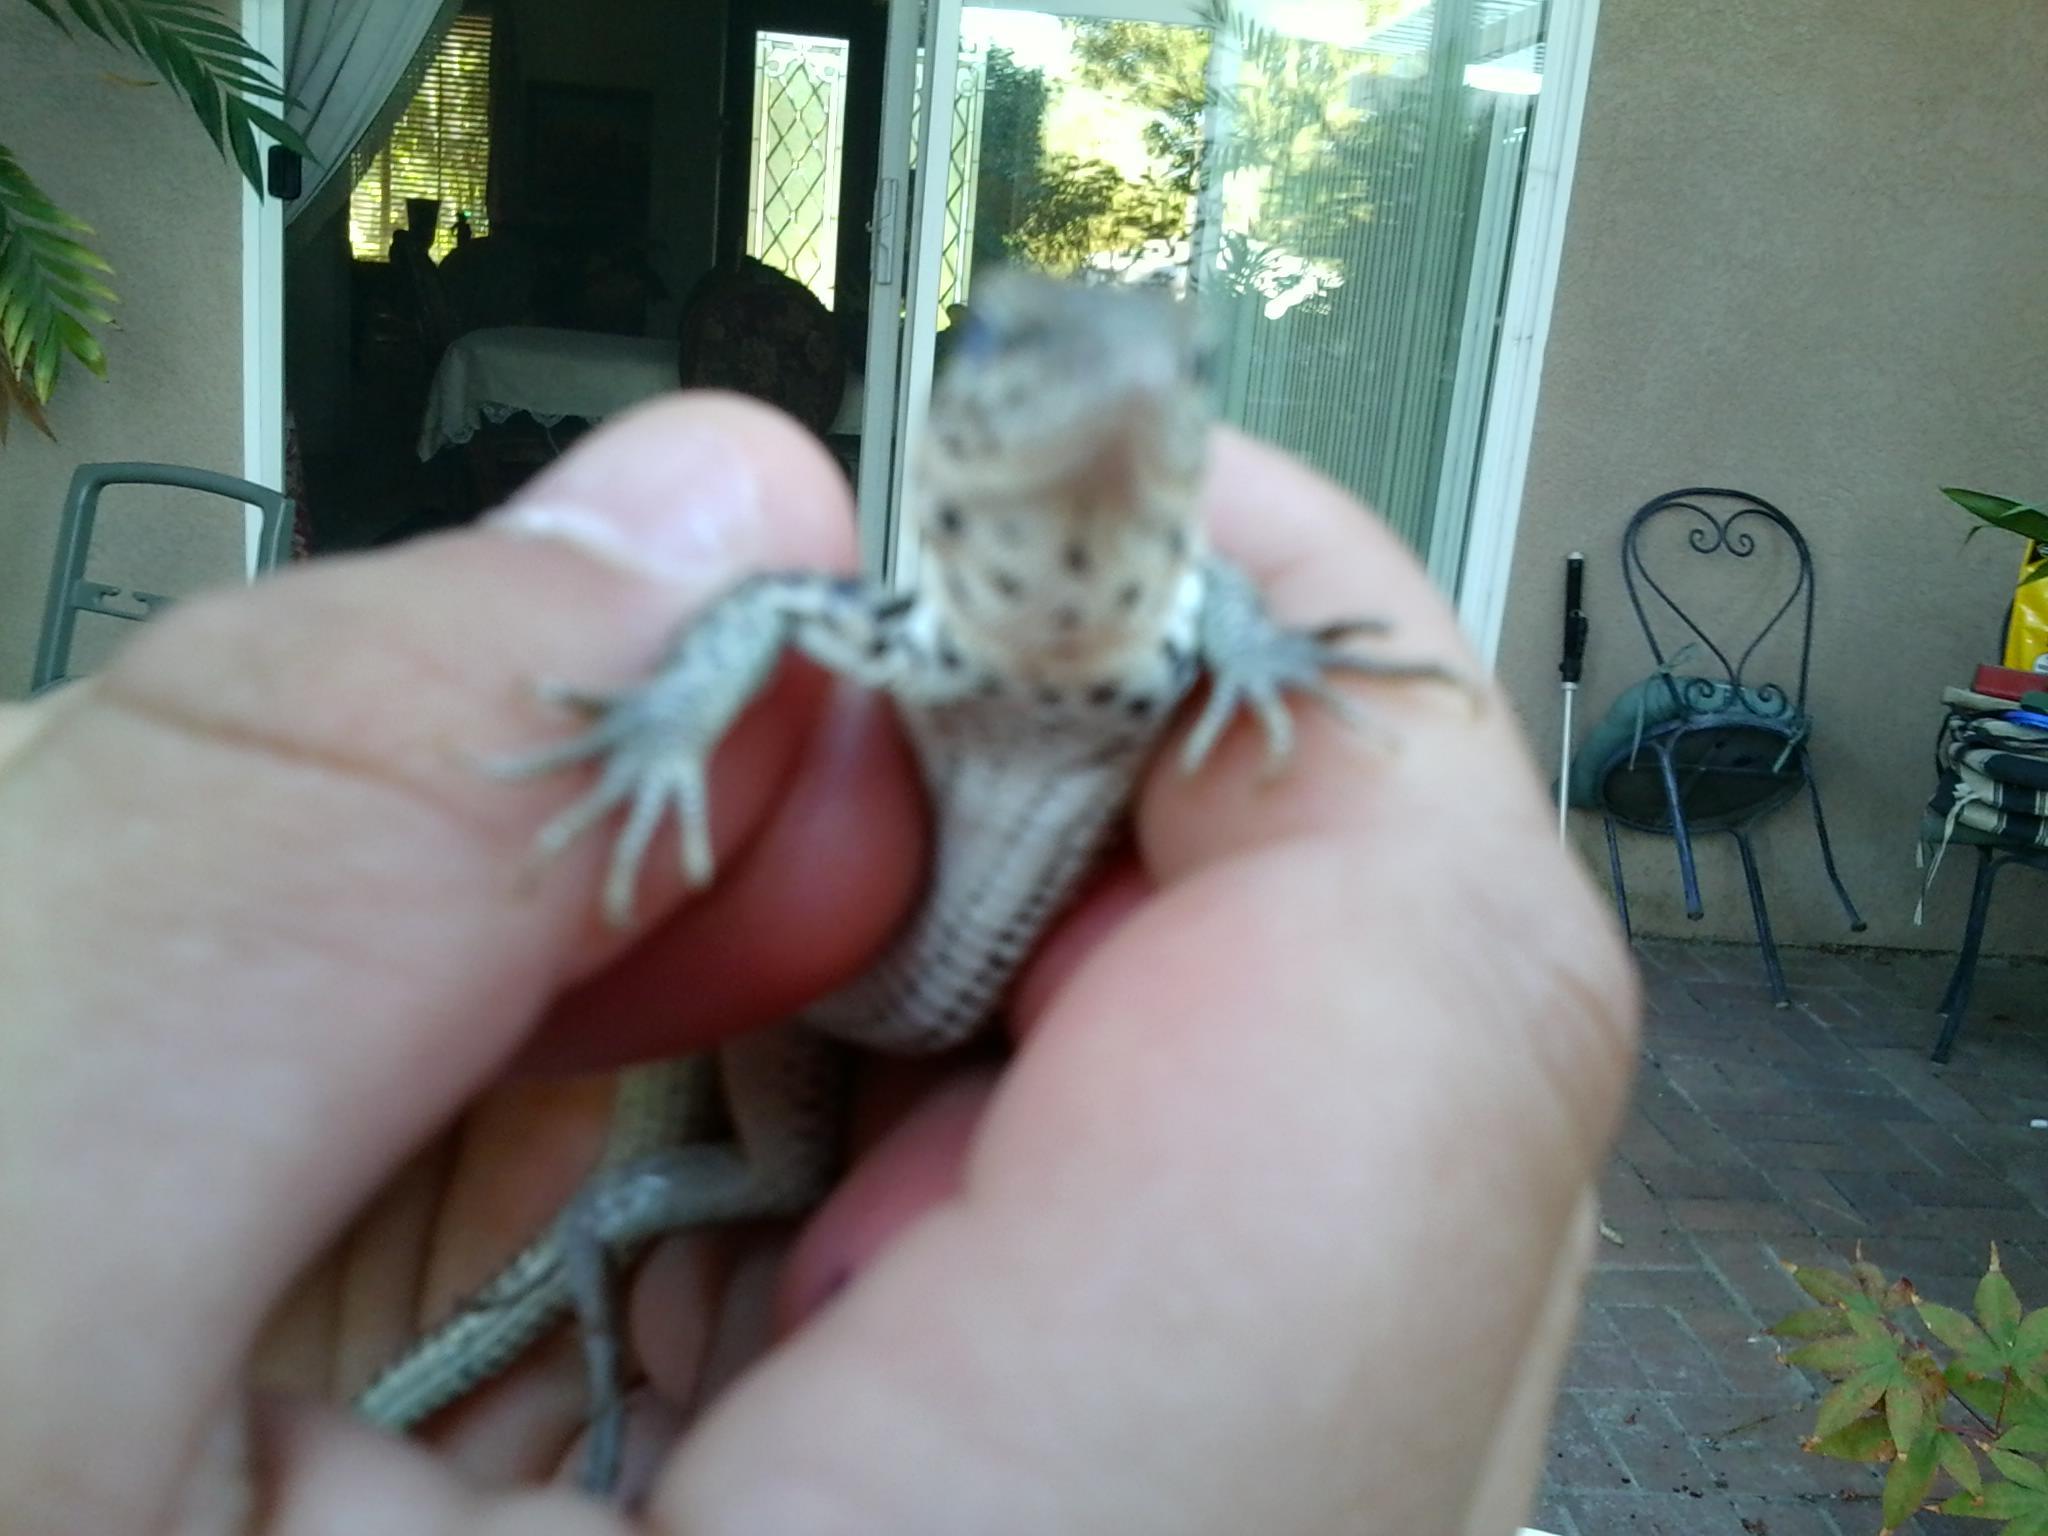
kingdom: Animalia
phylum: Chordata
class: Squamata
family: Teiidae
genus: Aspidoscelis
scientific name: Aspidoscelis tigris
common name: Tiger whiptail
